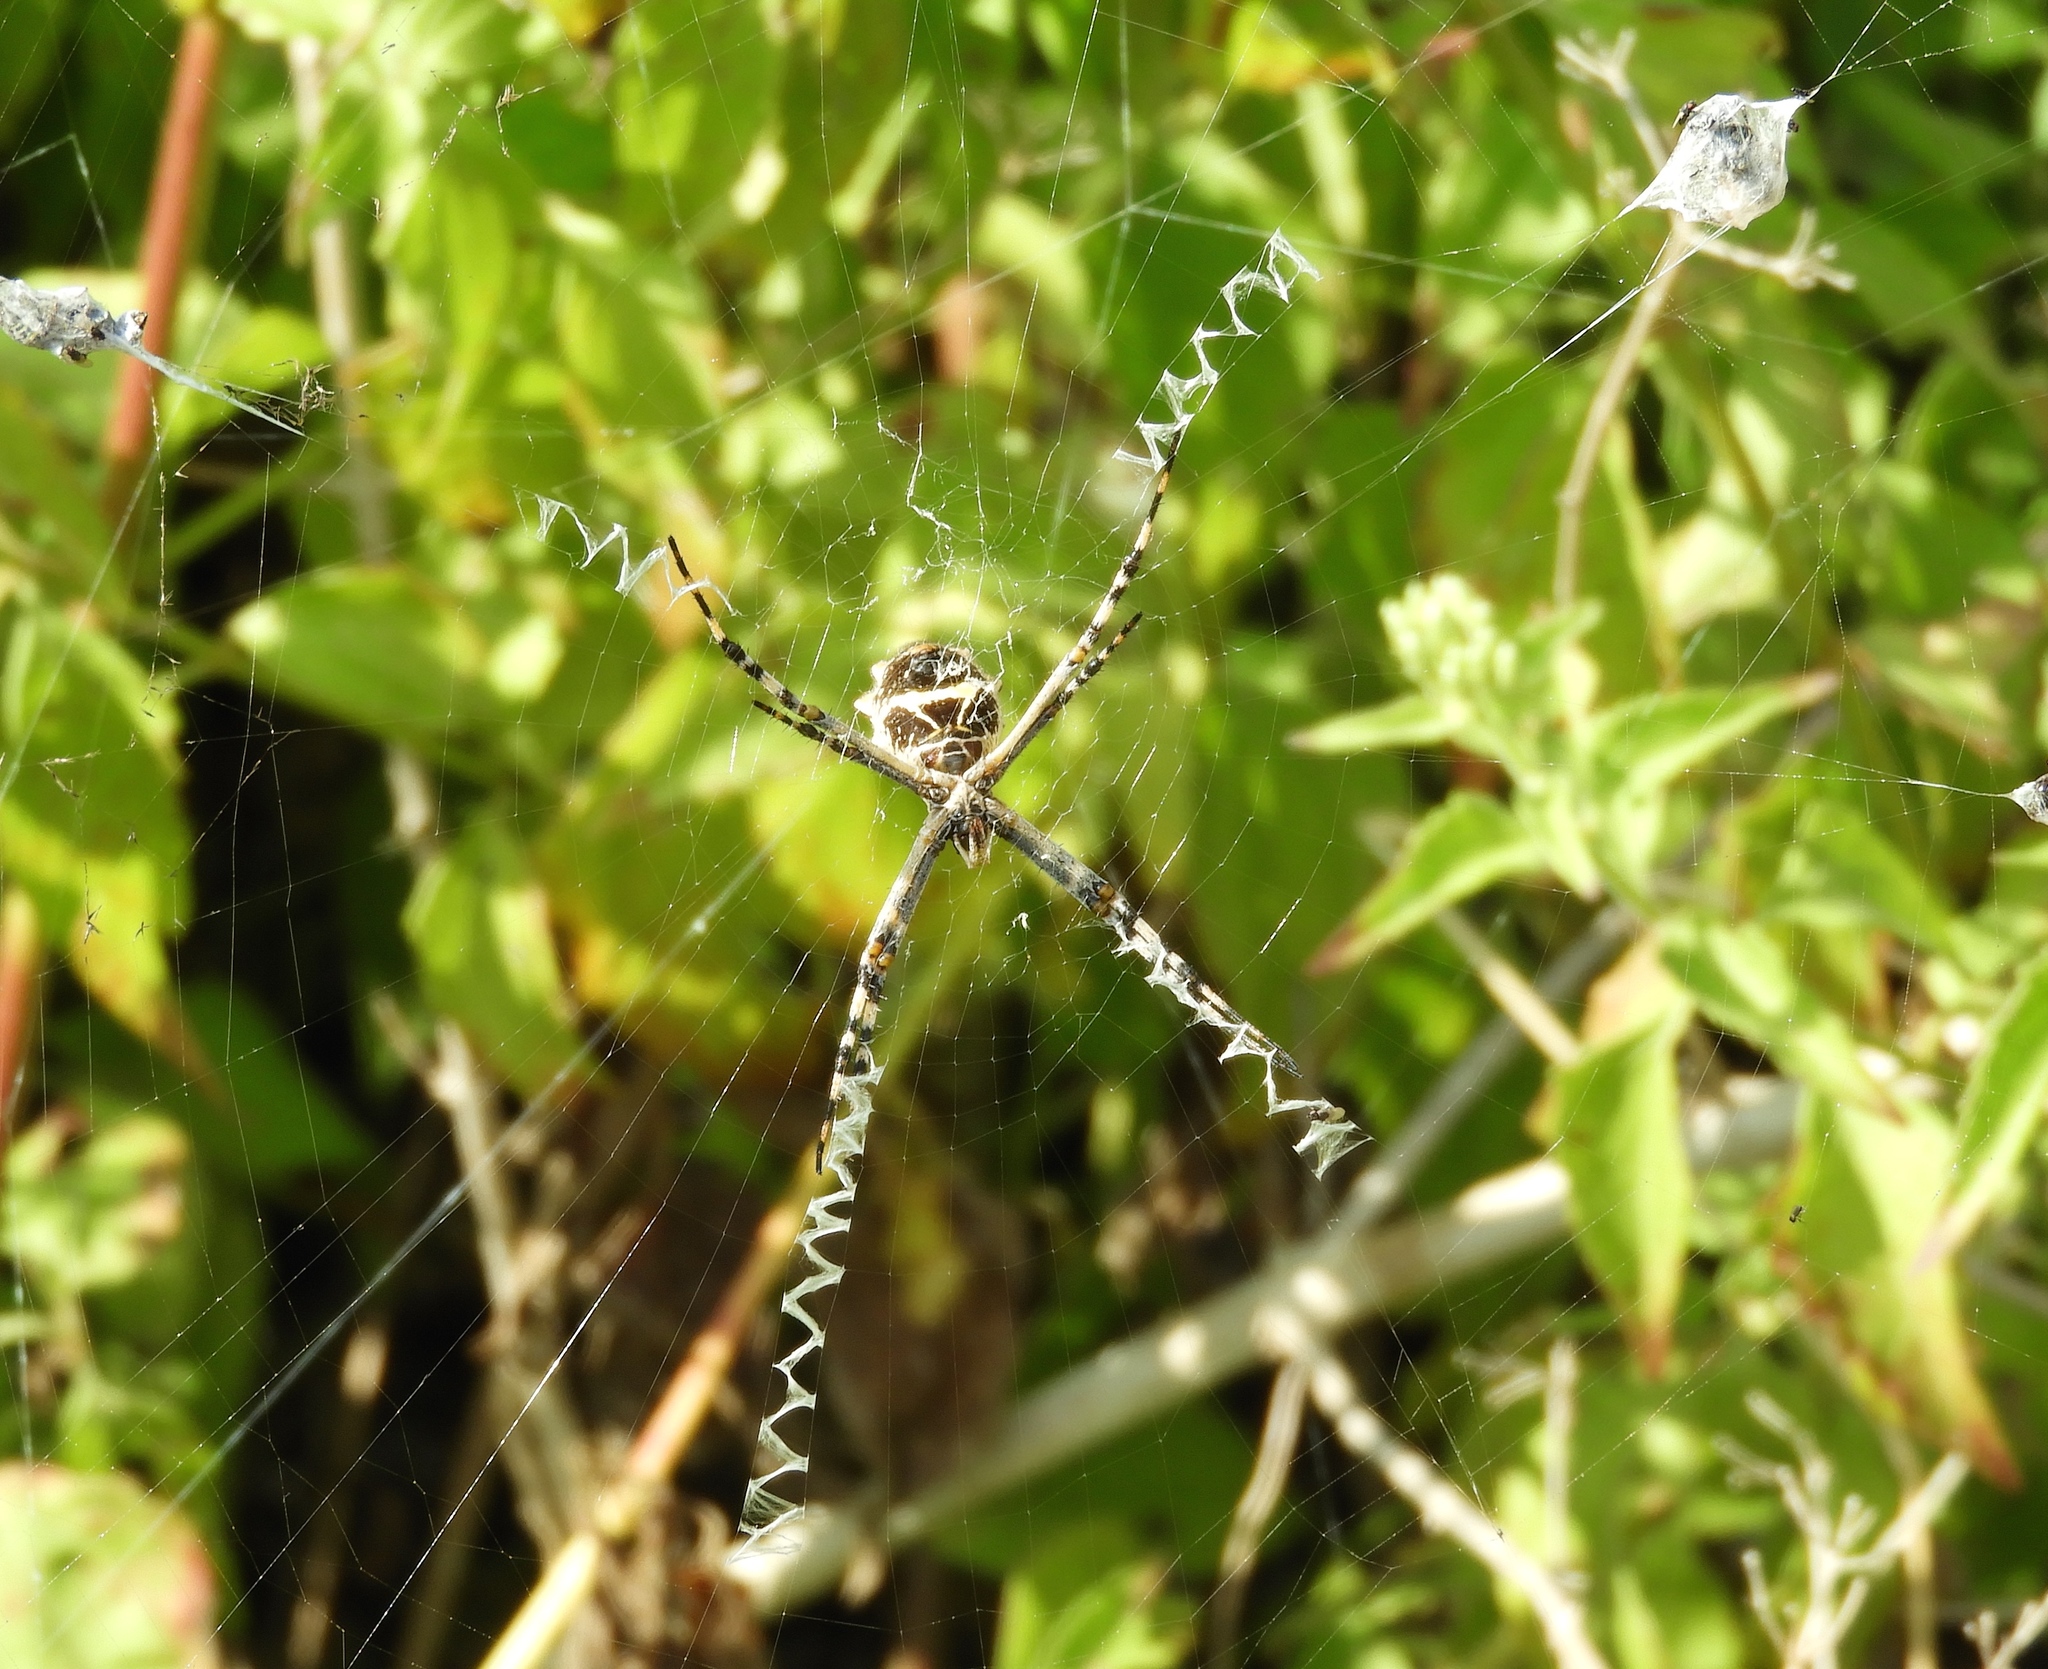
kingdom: Animalia
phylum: Arthropoda
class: Arachnida
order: Araneae
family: Araneidae
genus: Argiope
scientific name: Argiope argentata
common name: Orb weavers
